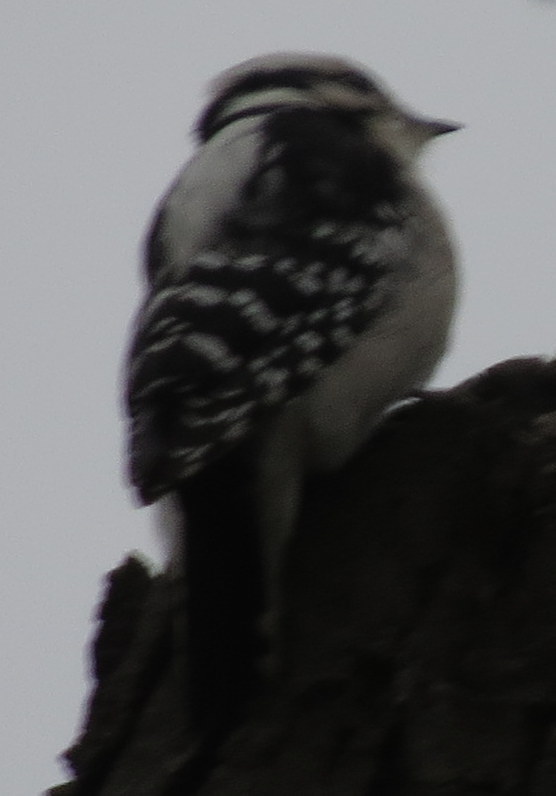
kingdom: Animalia
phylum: Chordata
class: Aves
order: Piciformes
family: Picidae
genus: Dryobates
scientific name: Dryobates pubescens
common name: Downy woodpecker
